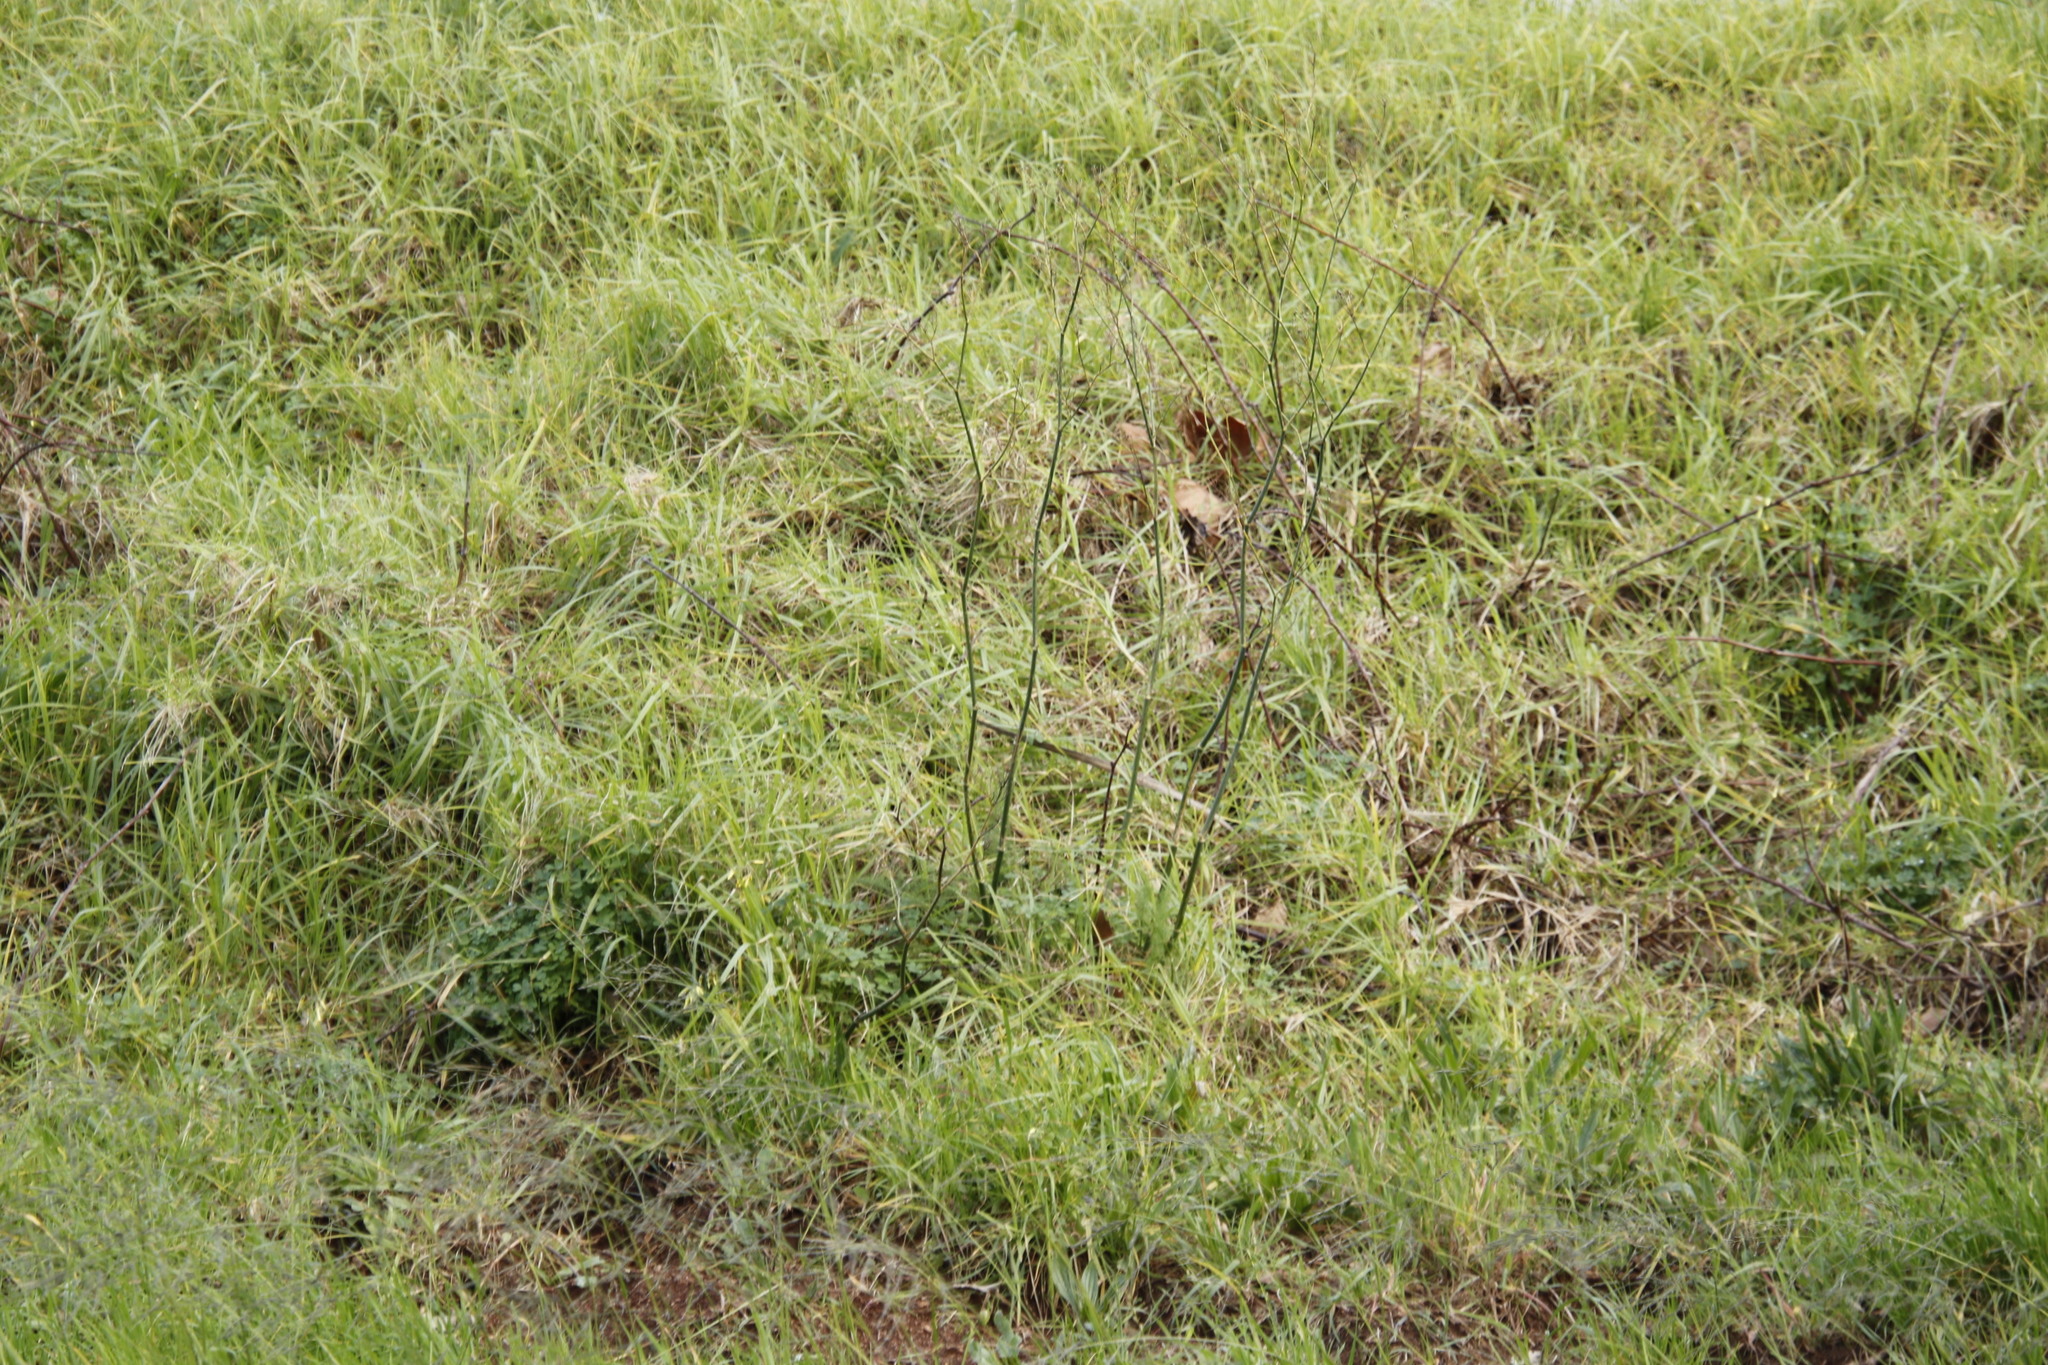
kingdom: Plantae
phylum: Tracheophyta
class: Magnoliopsida
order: Apiales
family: Apiaceae
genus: Foeniculum
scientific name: Foeniculum vulgare
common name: Fennel
